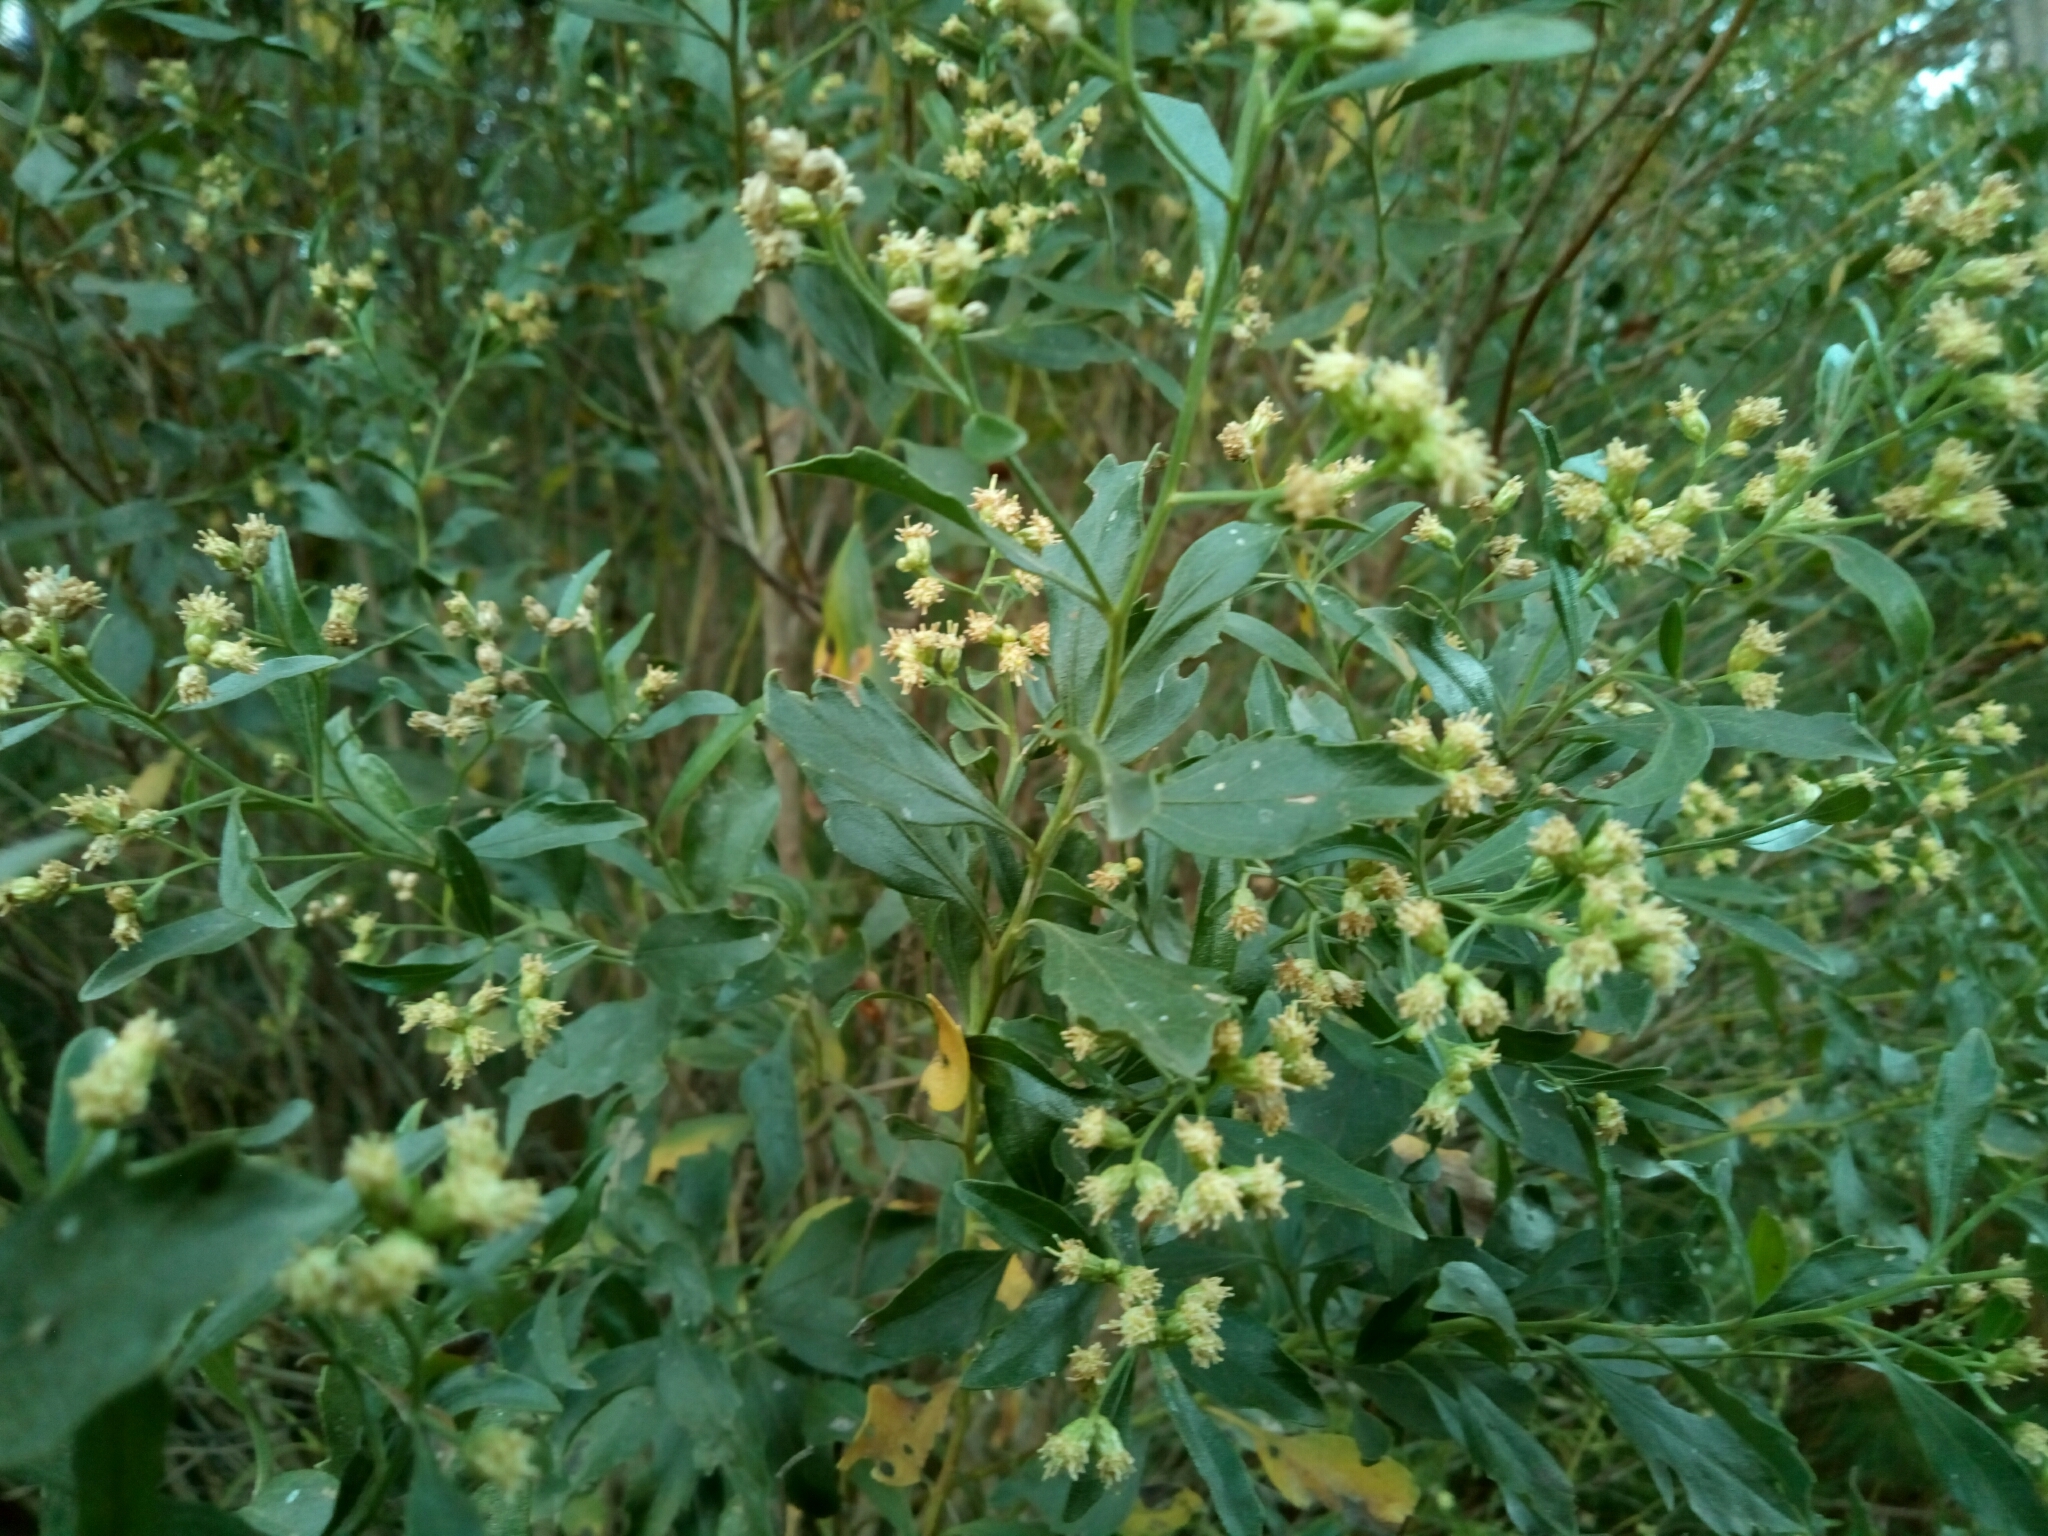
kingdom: Plantae
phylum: Tracheophyta
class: Magnoliopsida
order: Asterales
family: Asteraceae
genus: Baccharis
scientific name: Baccharis halimifolia
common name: Eastern baccharis
